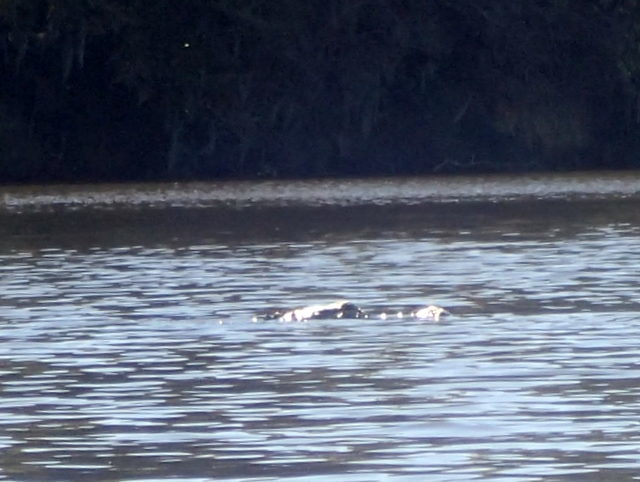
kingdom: Animalia
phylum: Chordata
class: Crocodylia
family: Alligatoridae
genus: Alligator
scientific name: Alligator mississippiensis
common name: American alligator
